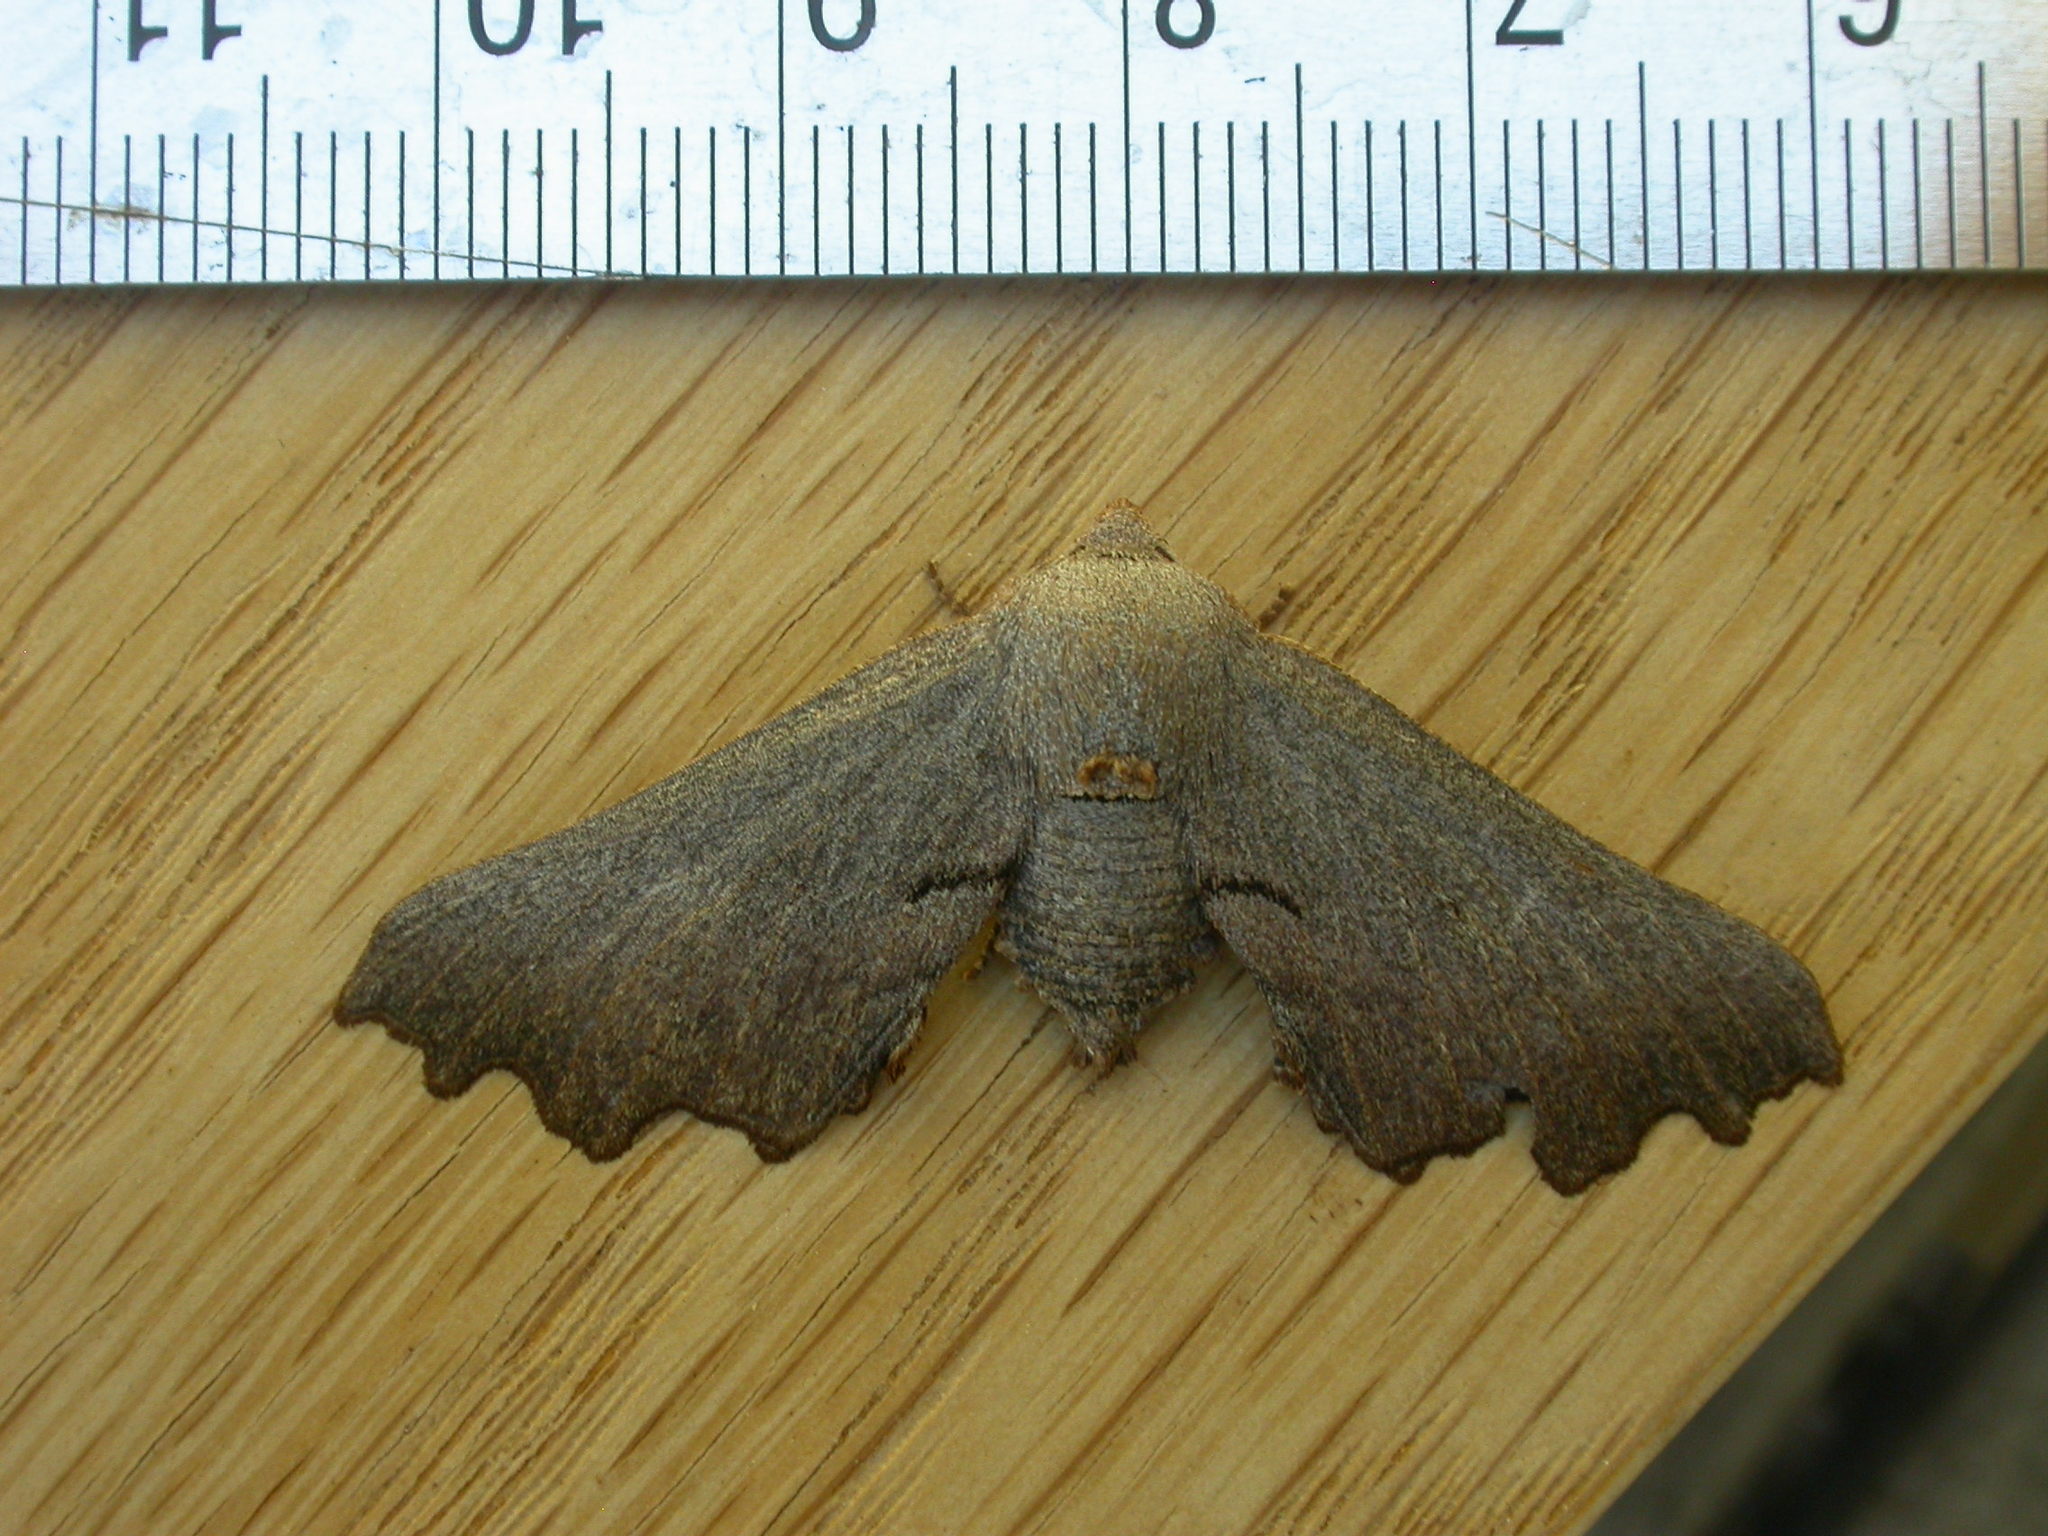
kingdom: Animalia
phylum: Arthropoda
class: Insecta
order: Lepidoptera
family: Geometridae
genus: Amphiclasta
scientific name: Amphiclasta lygaea
